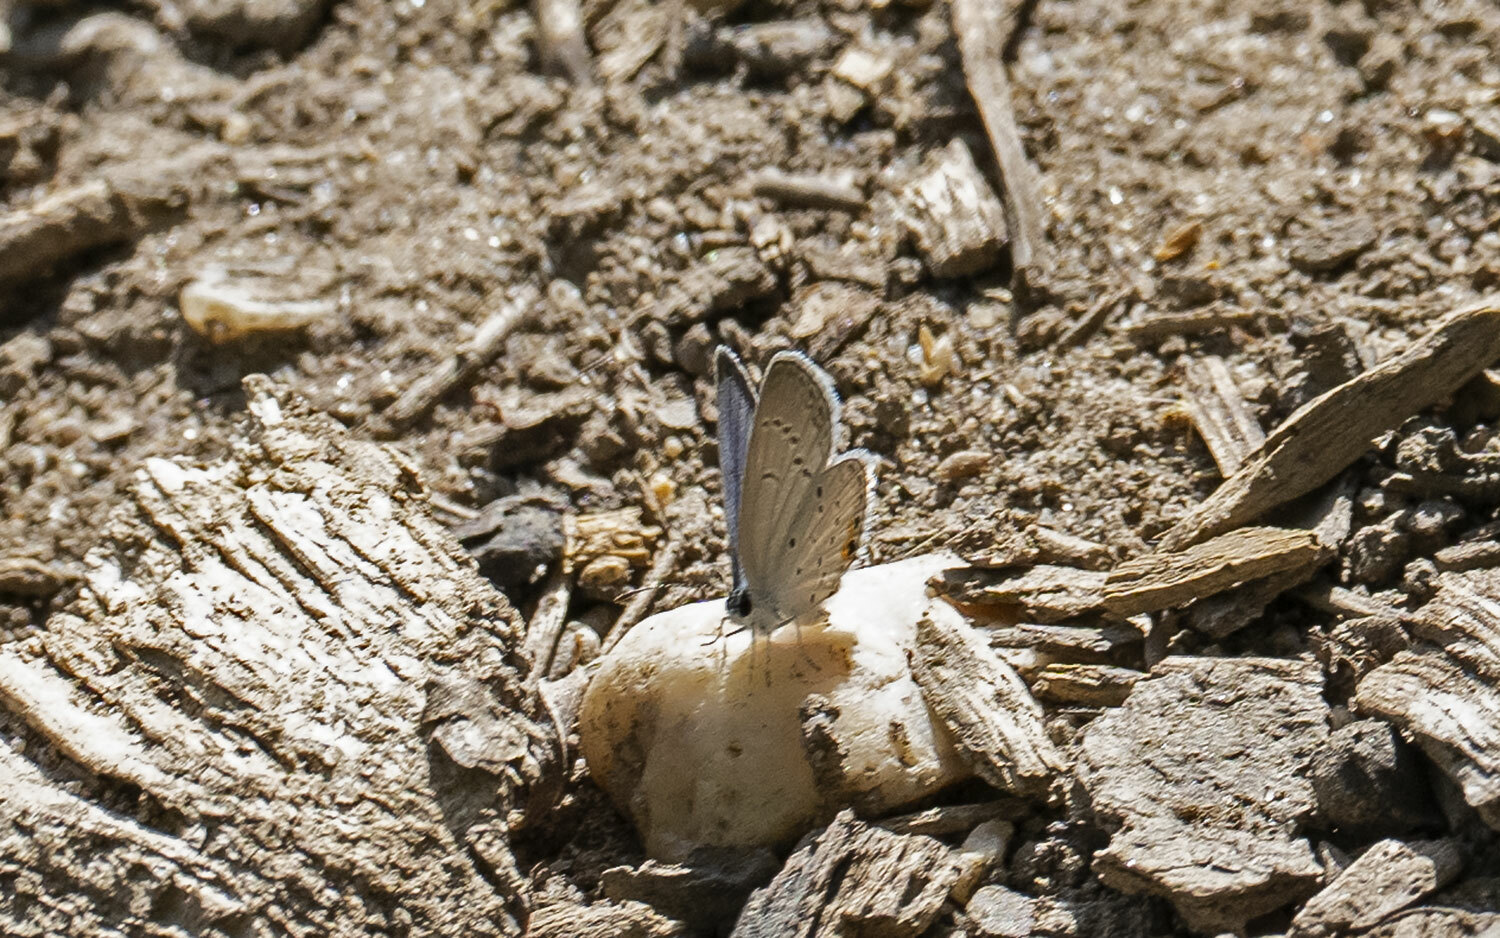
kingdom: Animalia
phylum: Arthropoda
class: Insecta
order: Lepidoptera
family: Lycaenidae
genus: Elkalyce
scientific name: Elkalyce comyntas
